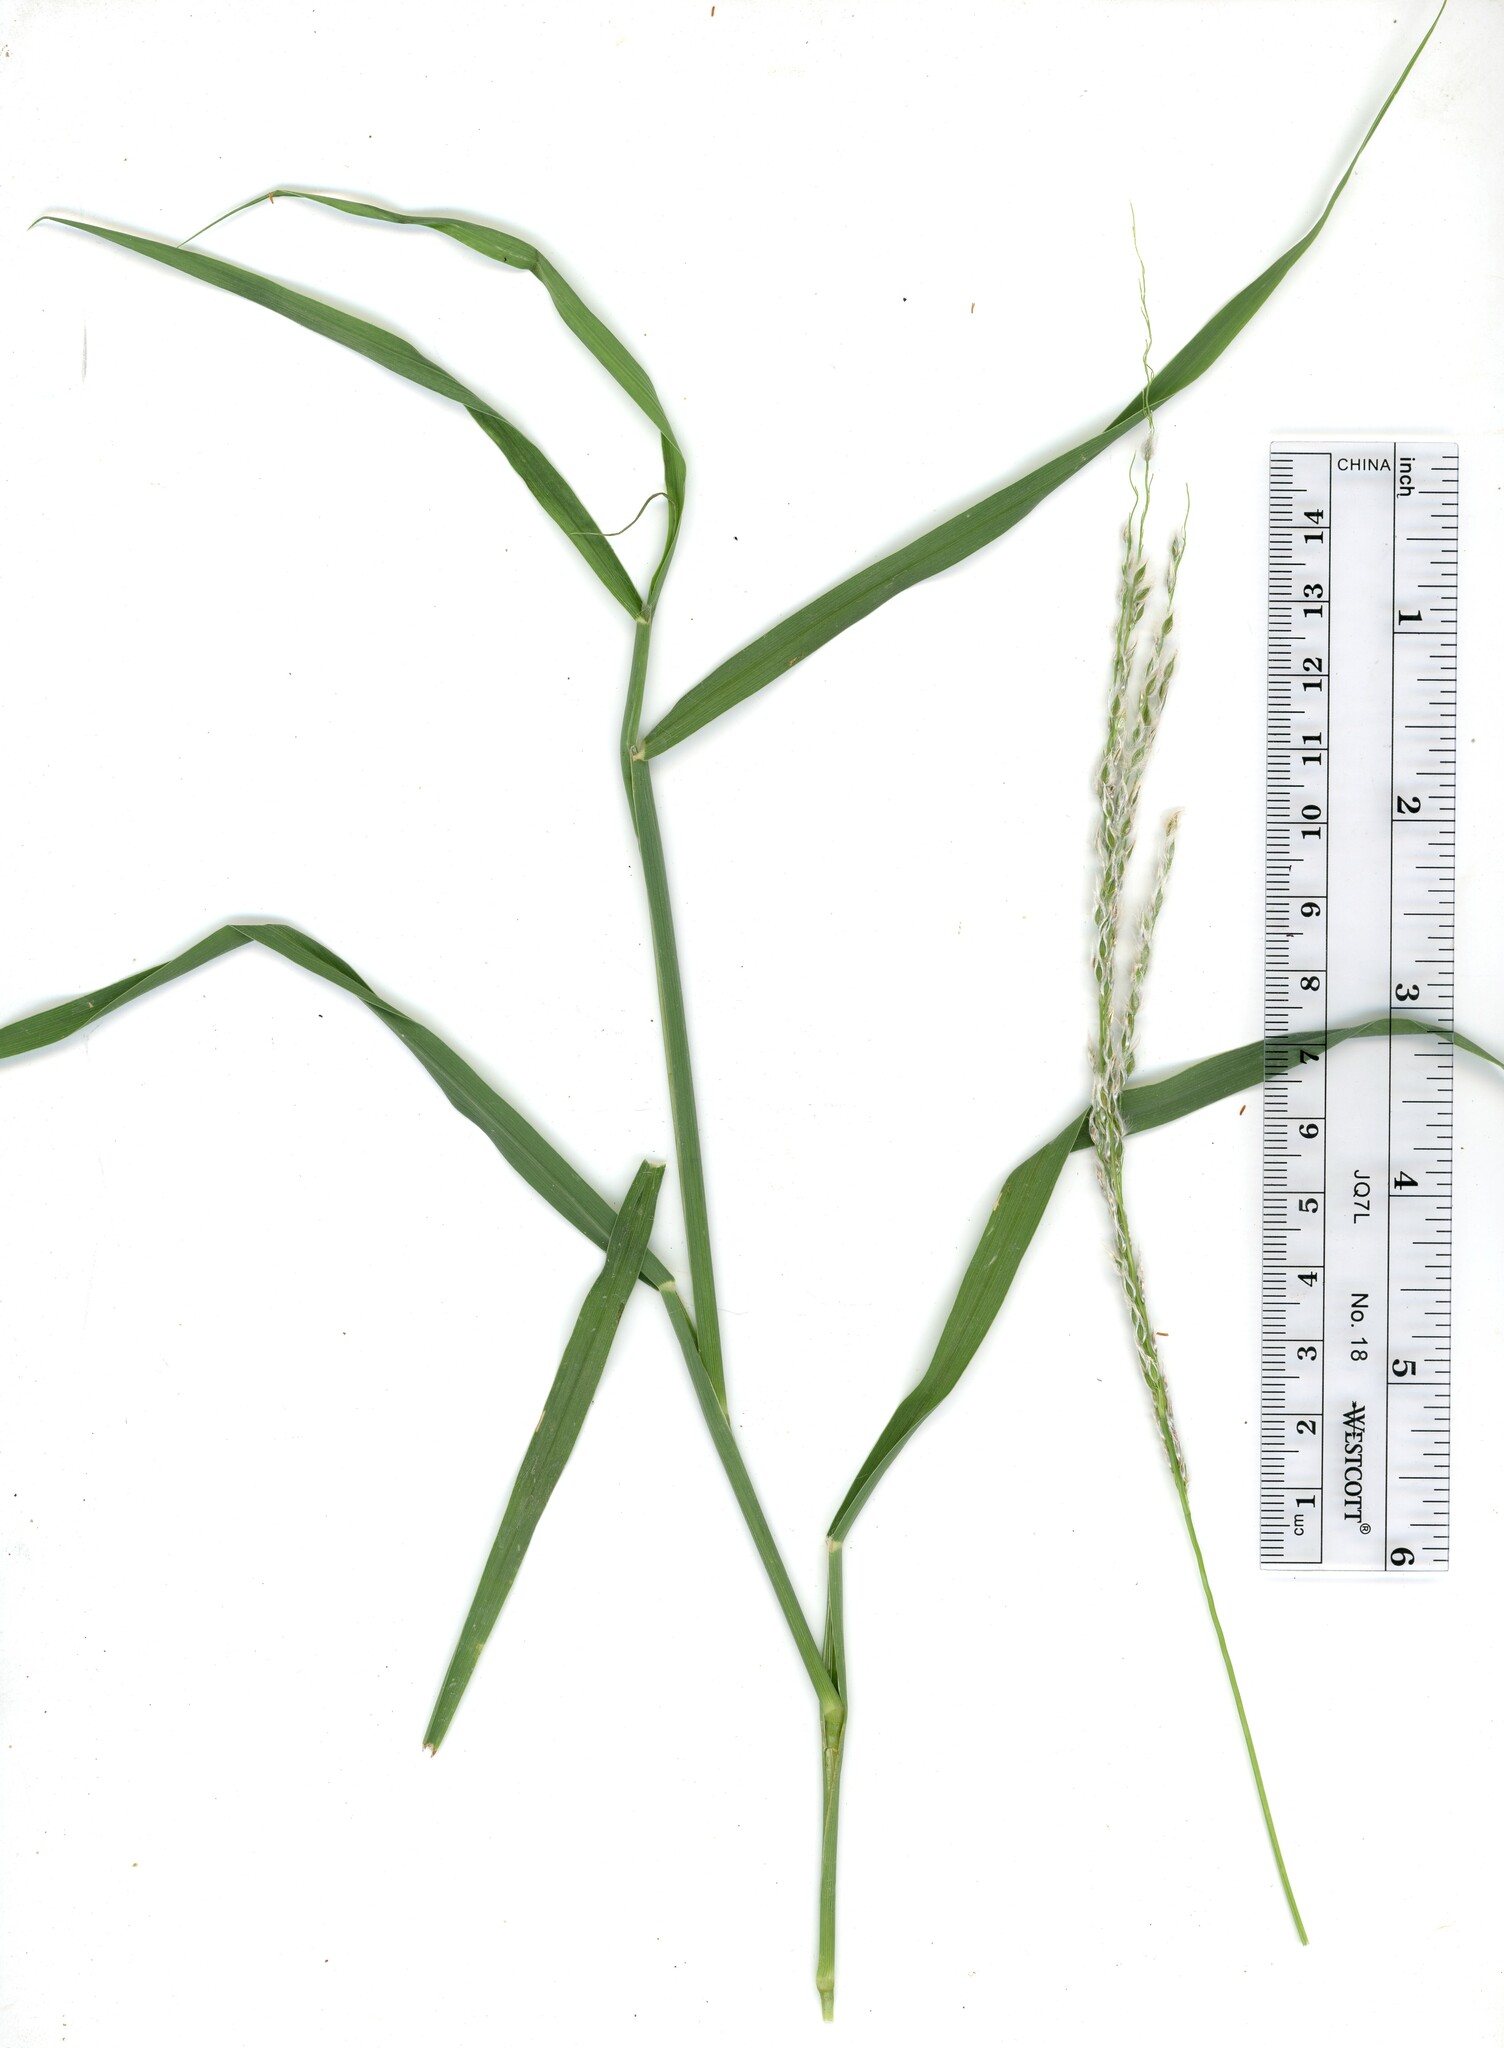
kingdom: Plantae
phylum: Tracheophyta
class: Liliopsida
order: Poales
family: Poaceae
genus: Digitaria
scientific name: Digitaria californica
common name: Arizona cottontop
